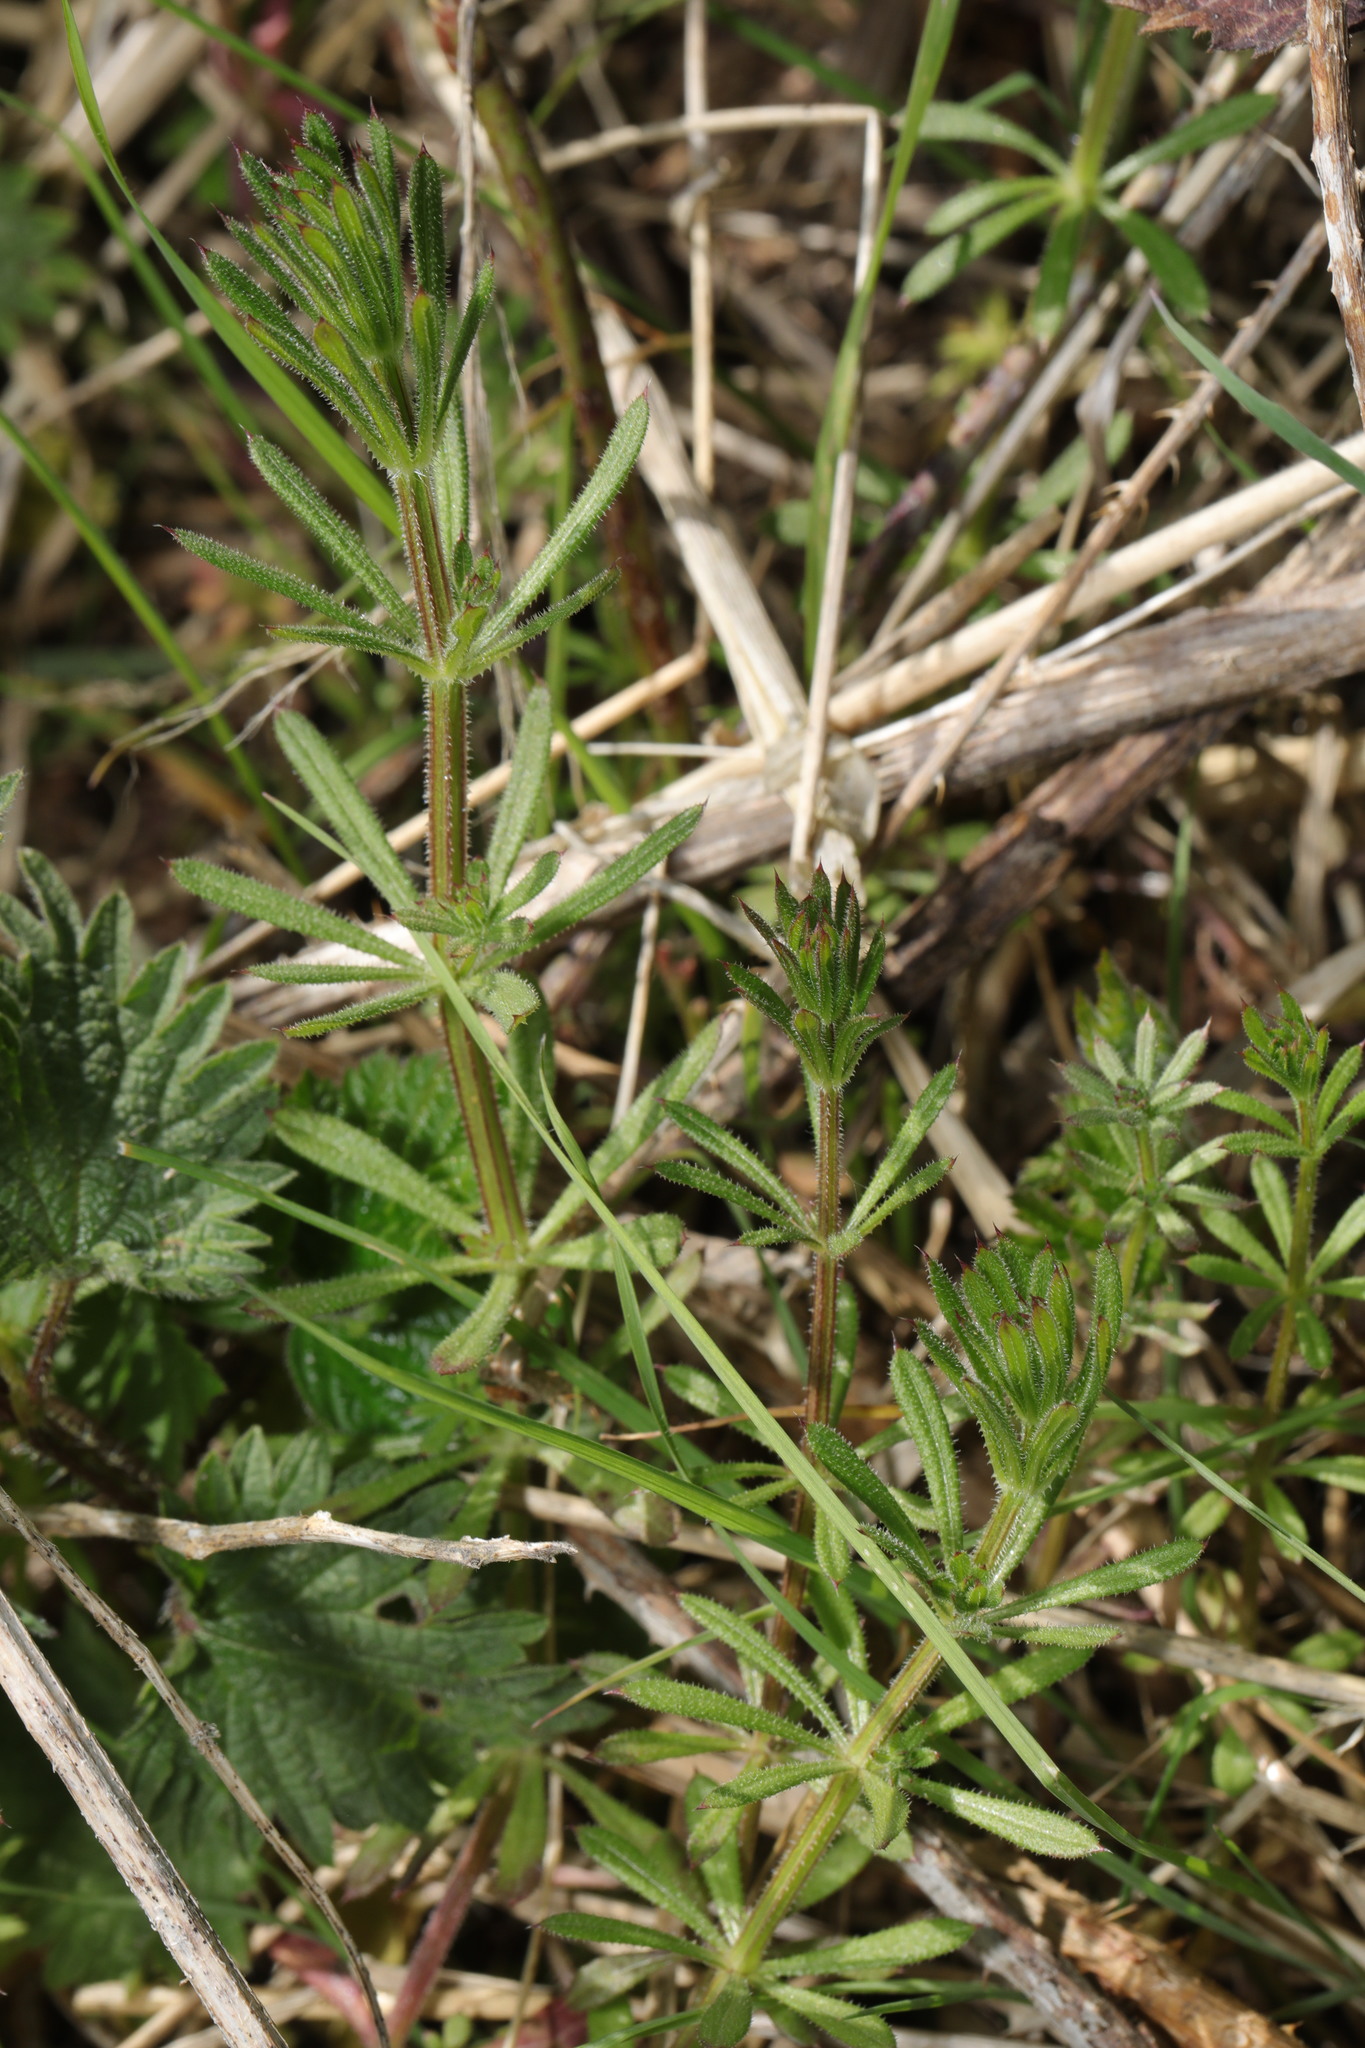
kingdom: Plantae
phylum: Tracheophyta
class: Magnoliopsida
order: Gentianales
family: Rubiaceae
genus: Galium
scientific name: Galium aparine
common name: Cleavers
